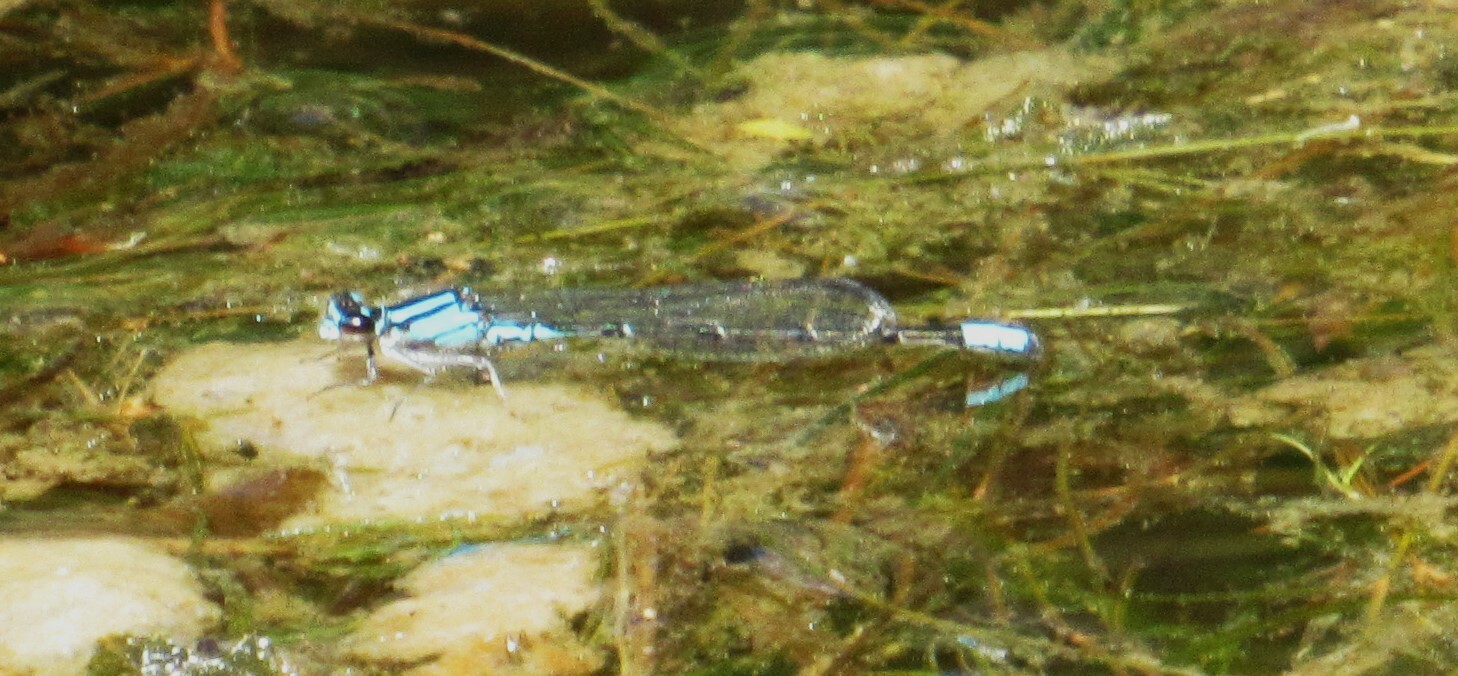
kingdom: Animalia
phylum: Arthropoda
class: Insecta
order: Odonata
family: Coenagrionidae
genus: Enallagma
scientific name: Enallagma geminatum
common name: Skimming bluet
